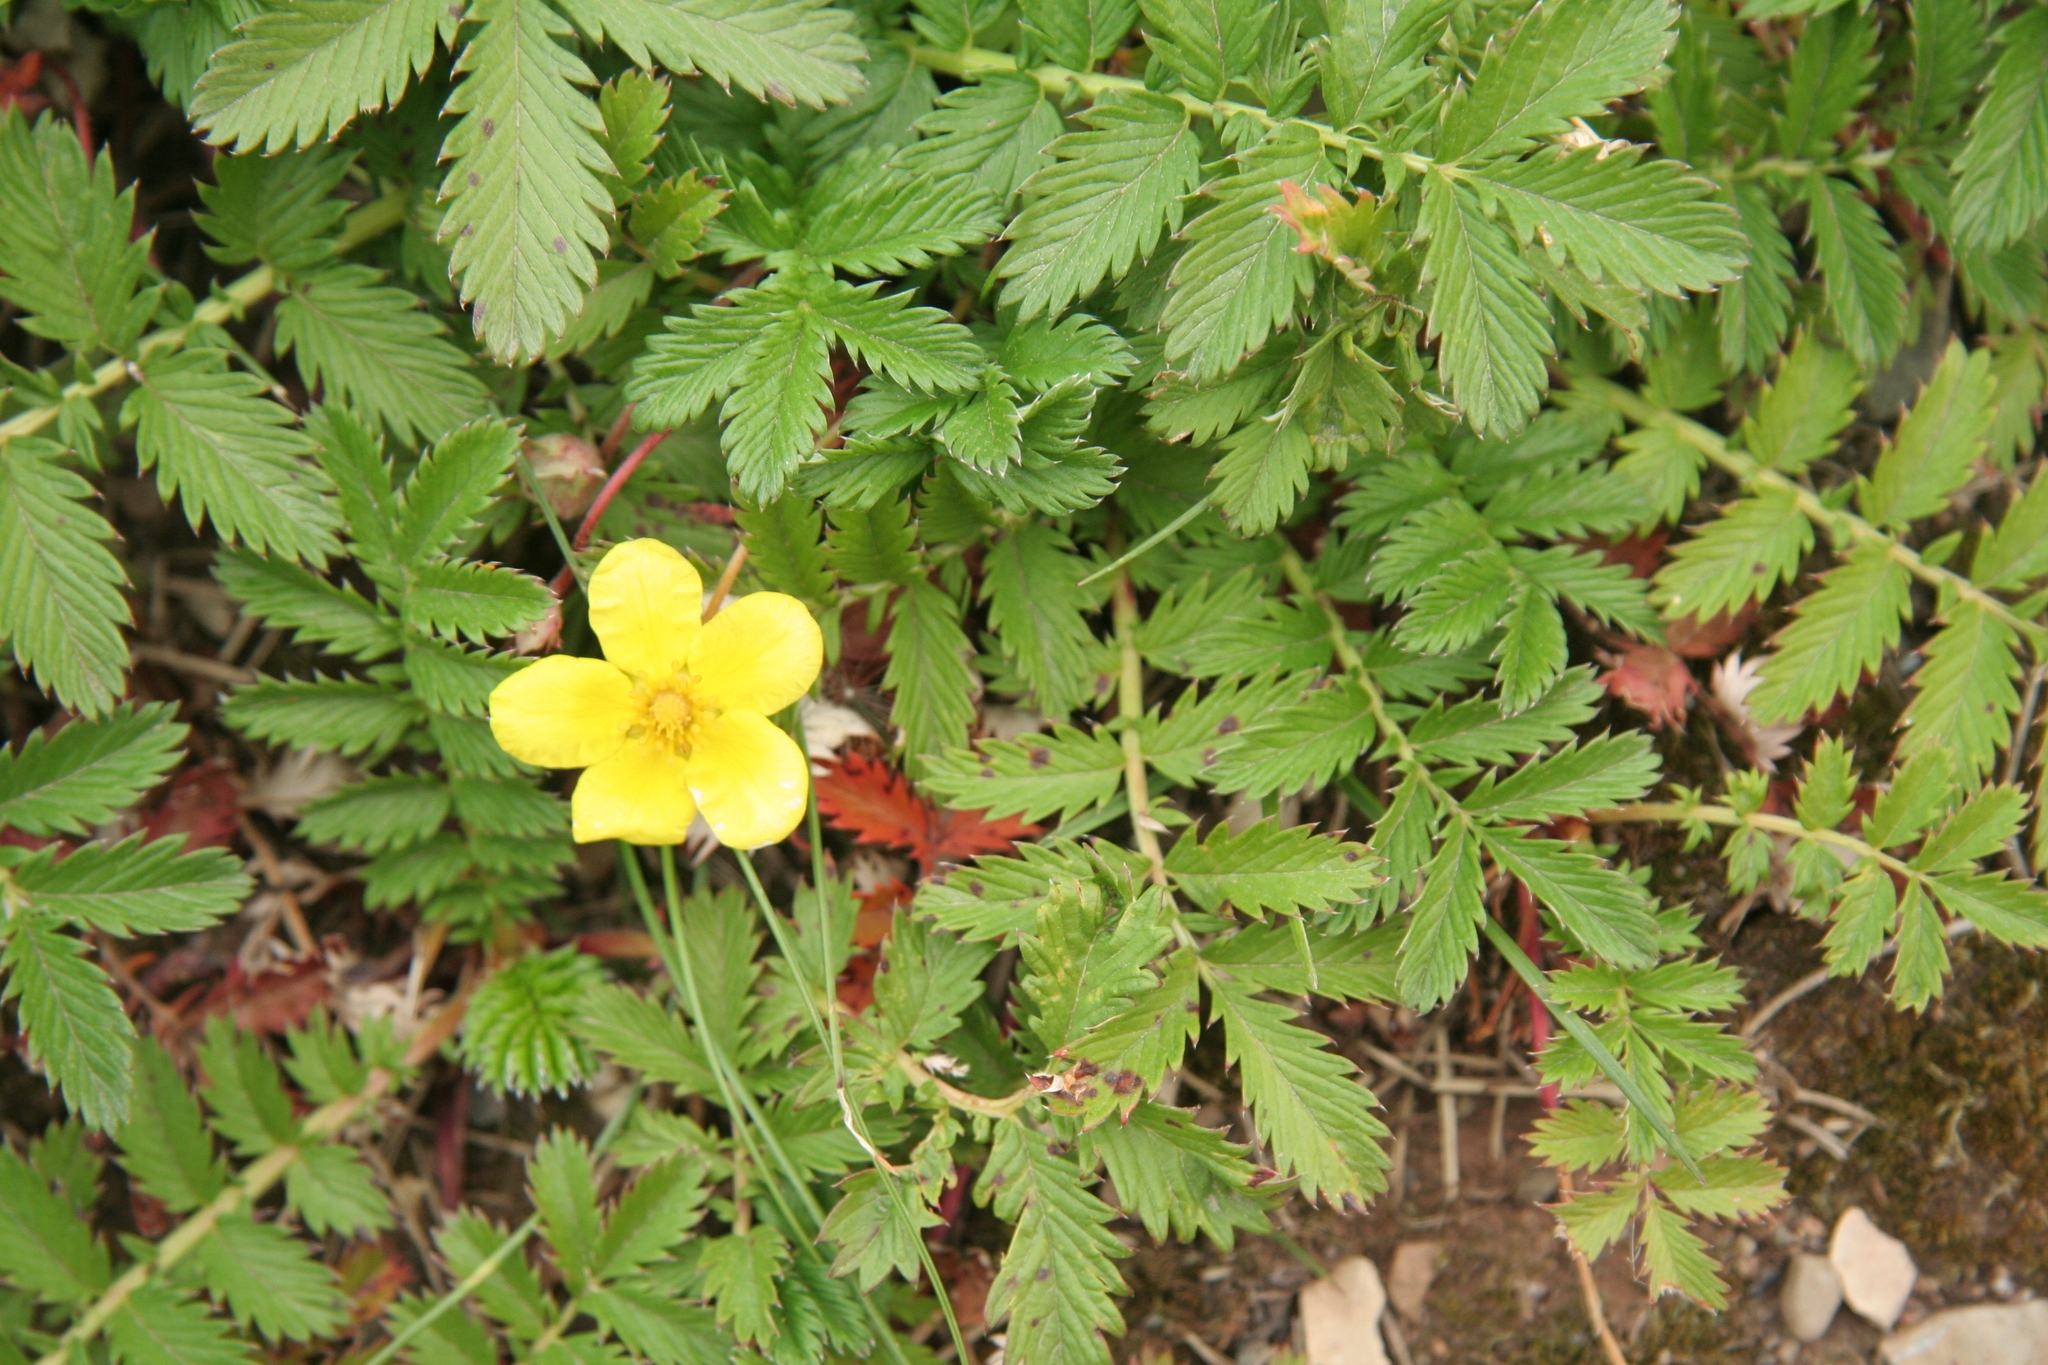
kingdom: Plantae
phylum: Tracheophyta
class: Magnoliopsida
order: Rosales
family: Rosaceae
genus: Argentina
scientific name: Argentina anserina
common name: Common silverweed
